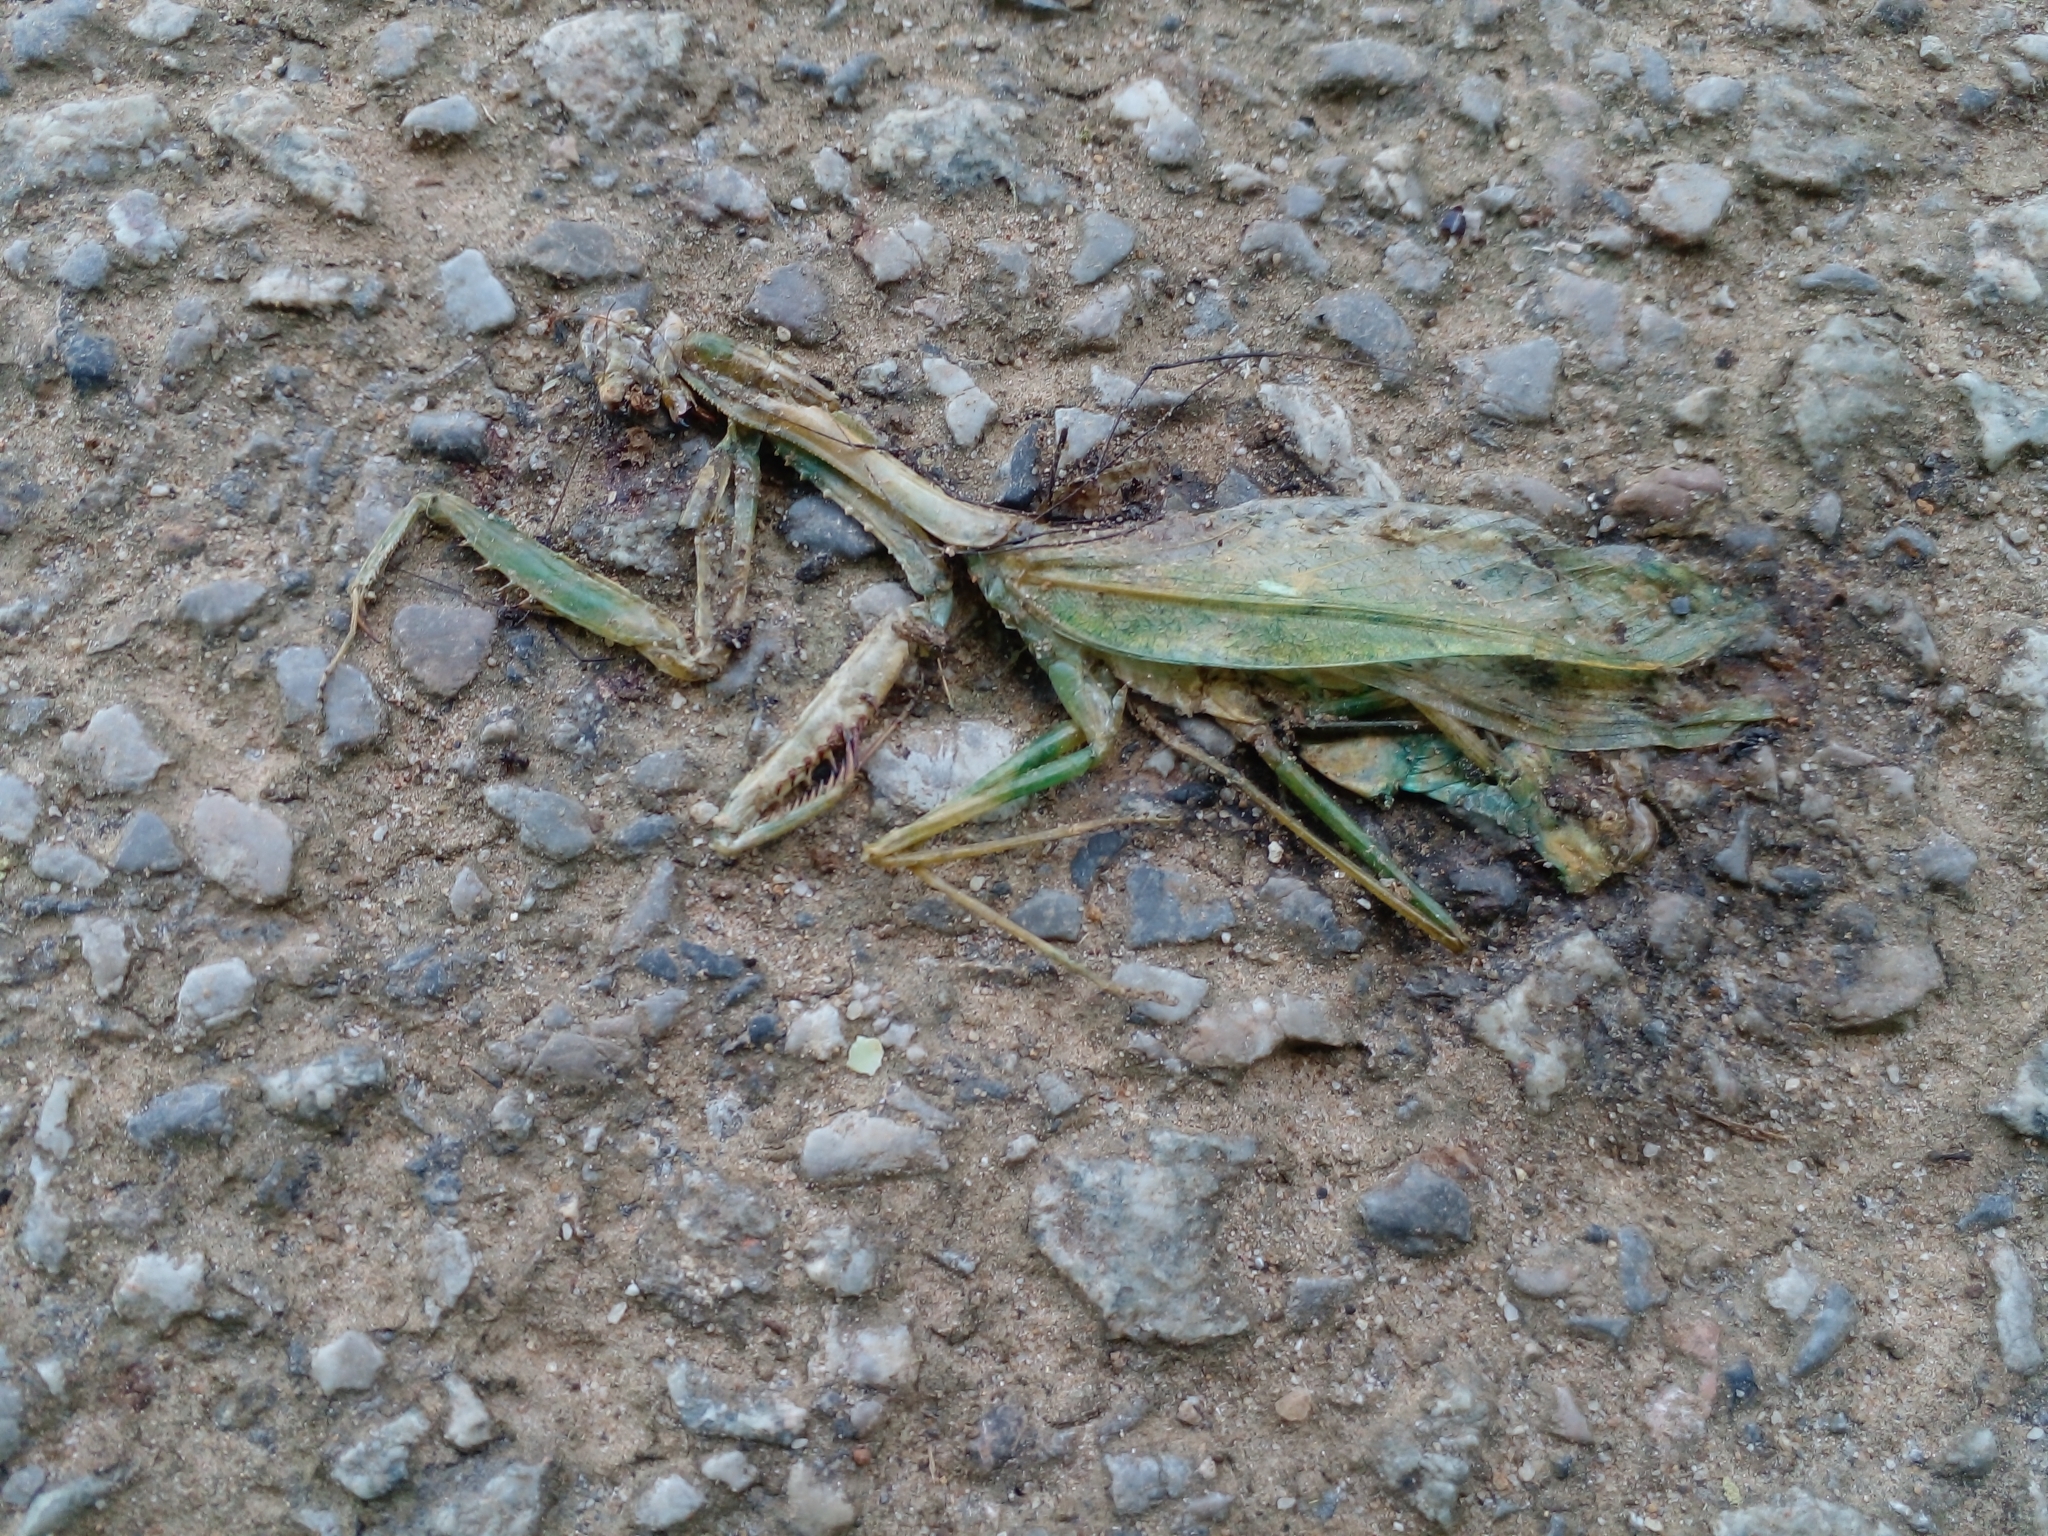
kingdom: Animalia
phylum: Arthropoda
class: Insecta
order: Mantodea
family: Mantidae
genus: Hierodula
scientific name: Hierodula dyaka
